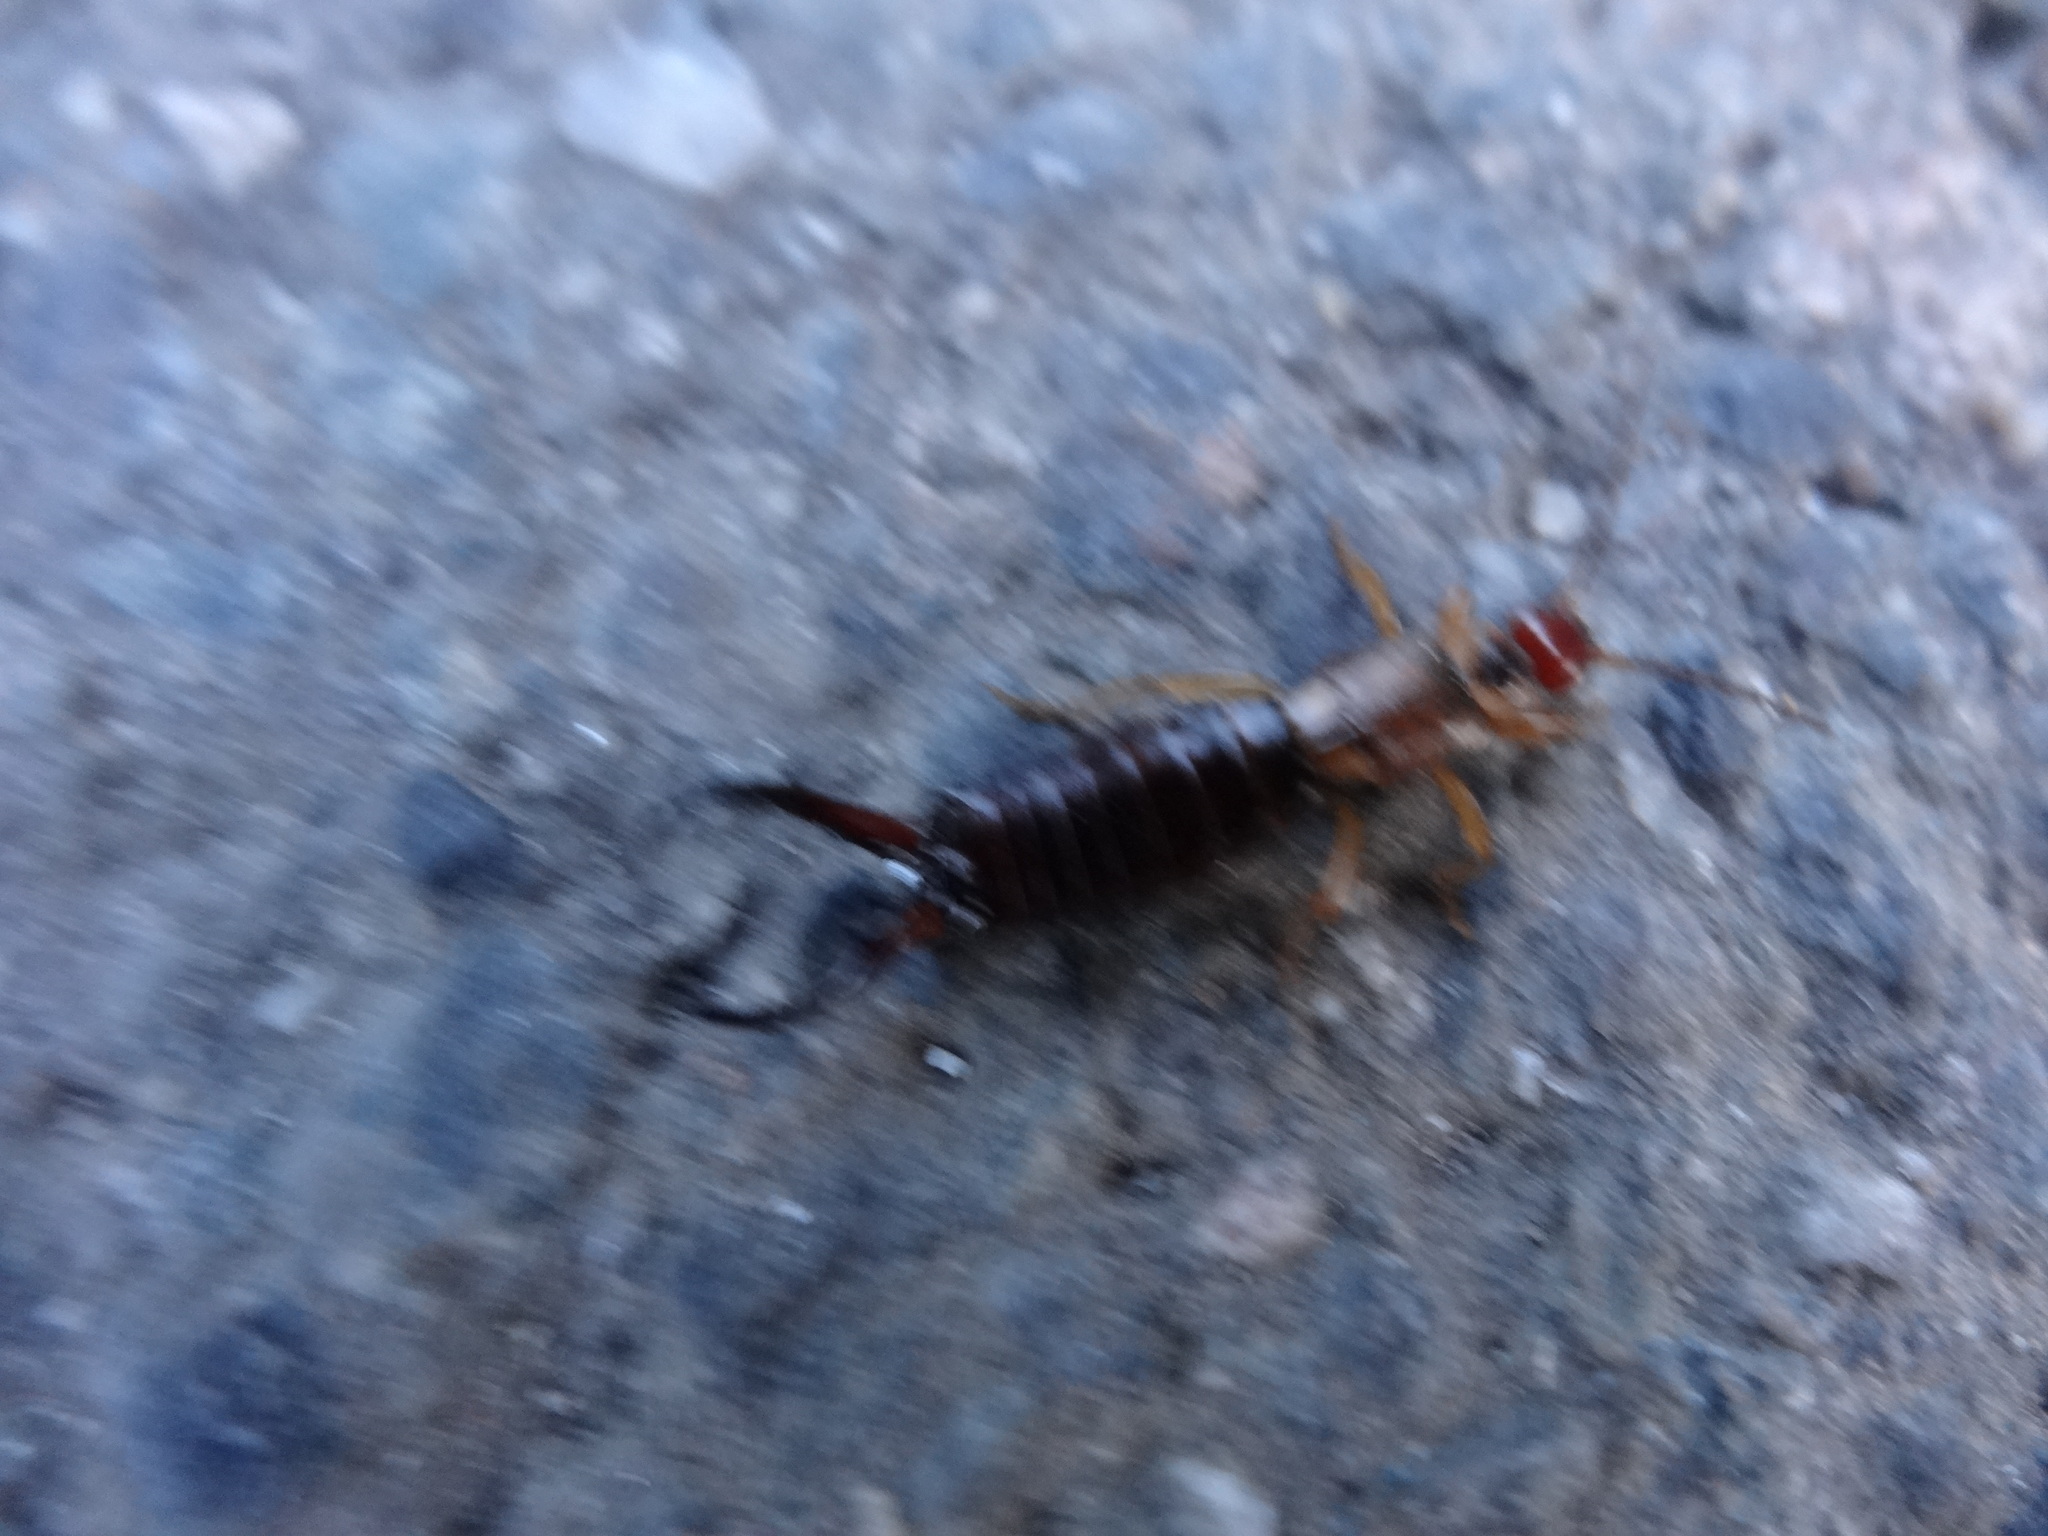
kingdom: Animalia
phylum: Arthropoda
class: Insecta
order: Dermaptera
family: Forficulidae
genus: Forficula
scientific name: Forficula
